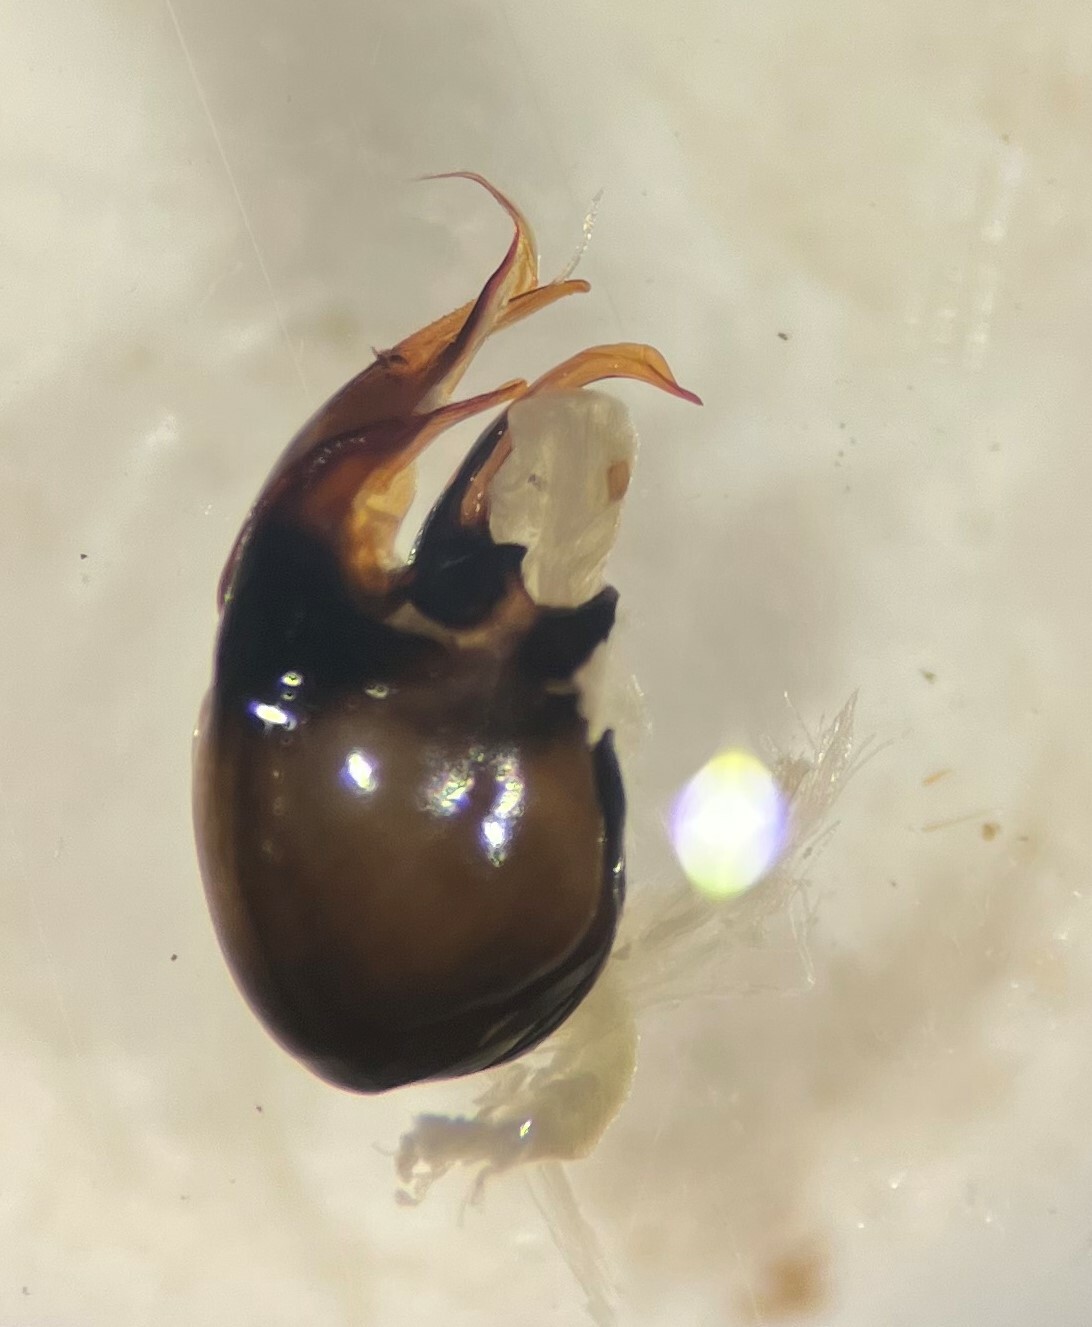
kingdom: Animalia
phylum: Arthropoda
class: Insecta
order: Hemiptera
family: Corixidae
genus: Hesperocorixa
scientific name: Hesperocorixa interrupta
